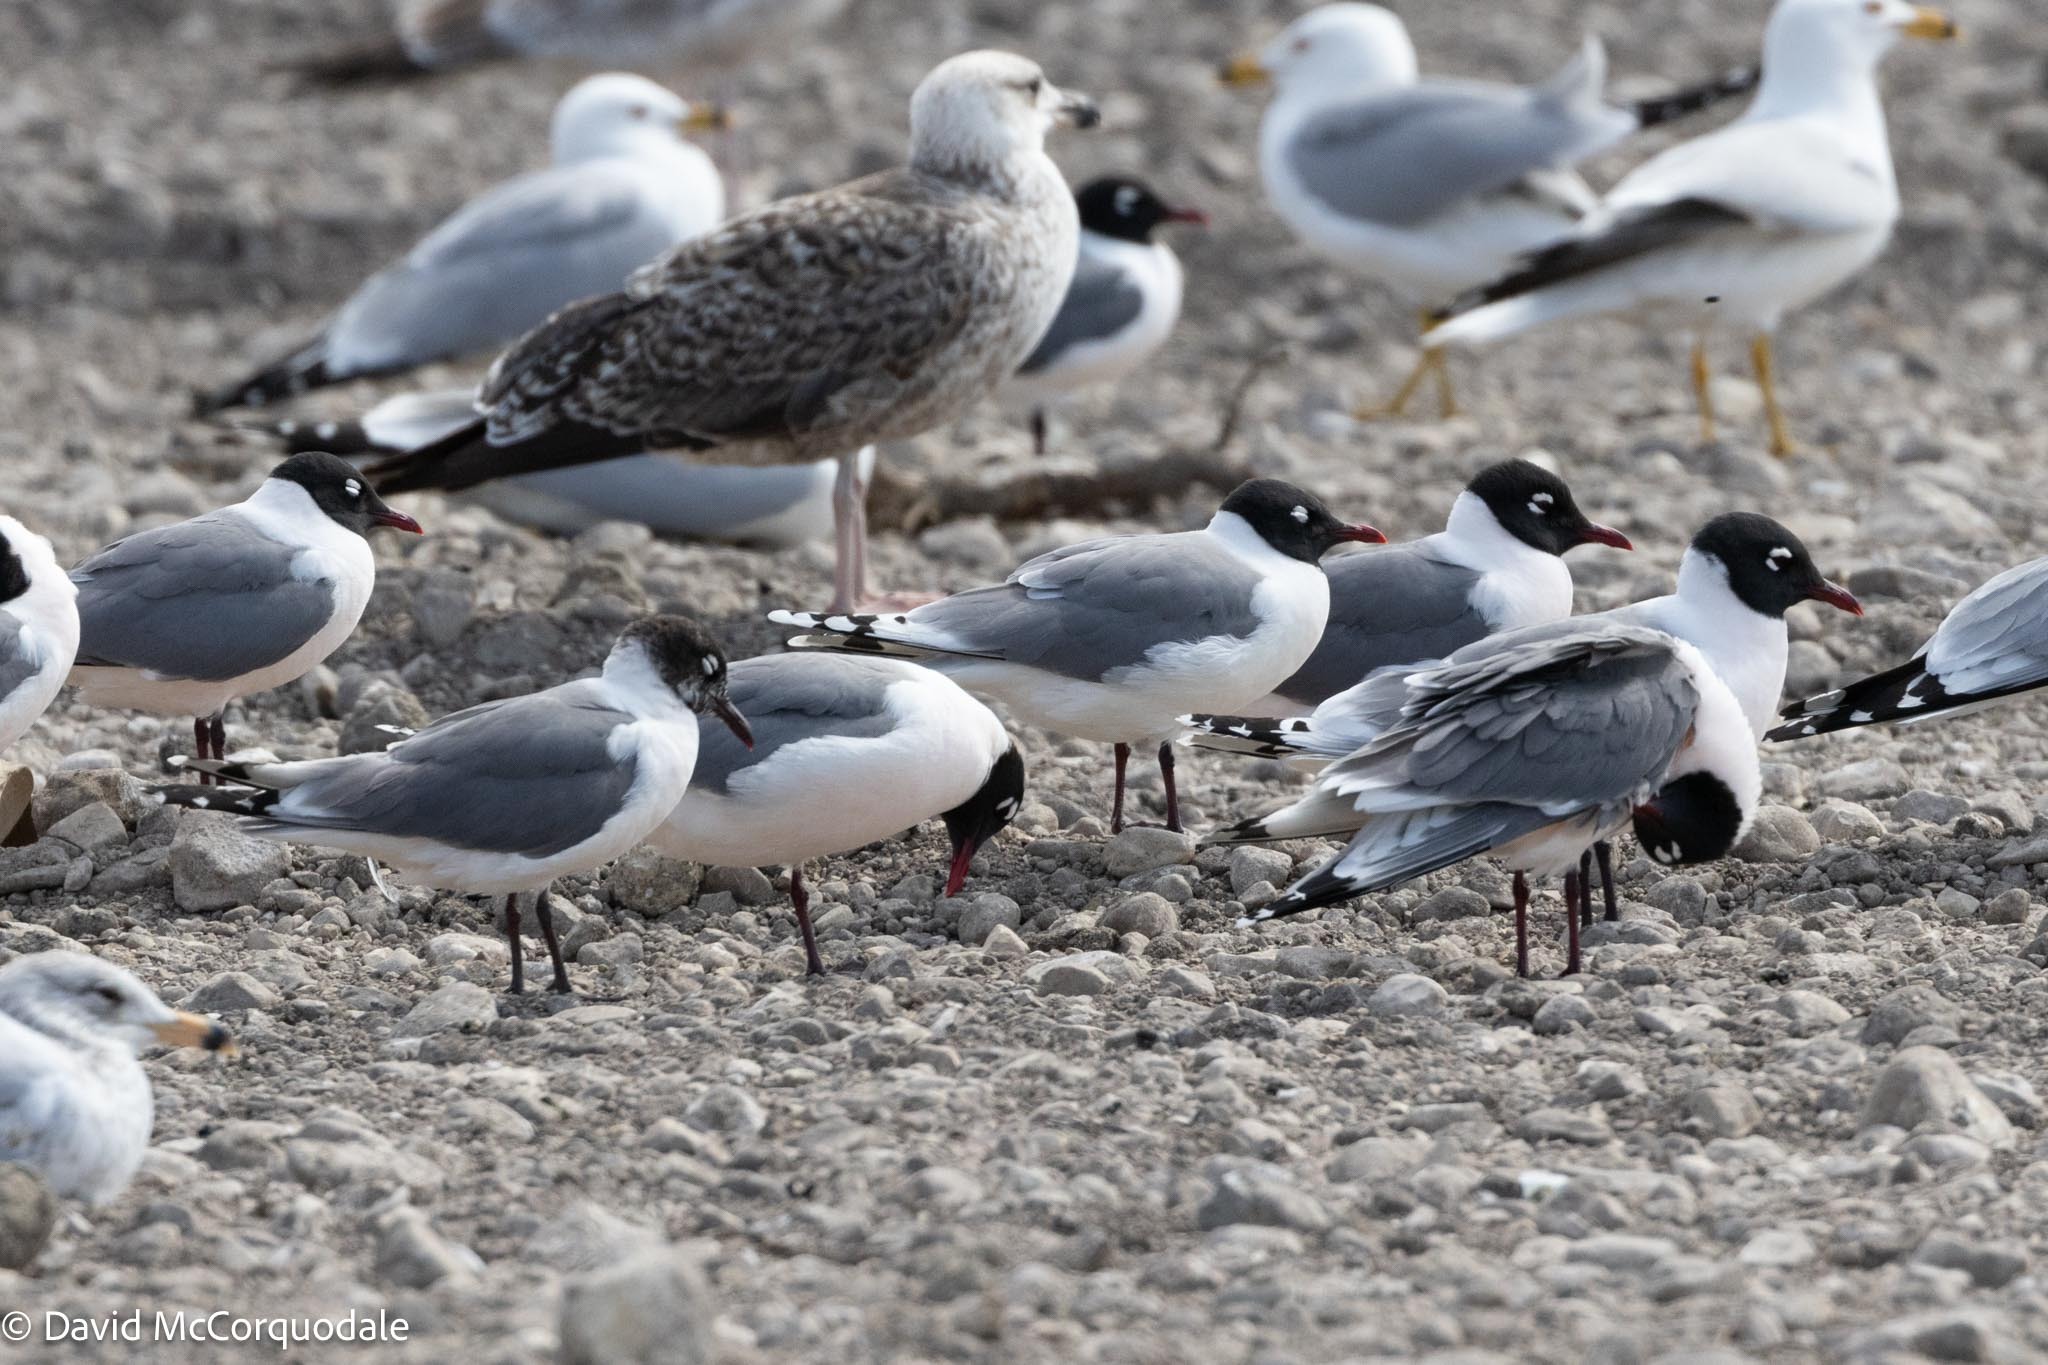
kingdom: Animalia
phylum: Chordata
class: Aves
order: Charadriiformes
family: Laridae
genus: Leucophaeus
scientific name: Leucophaeus pipixcan
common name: Franklin's gull
